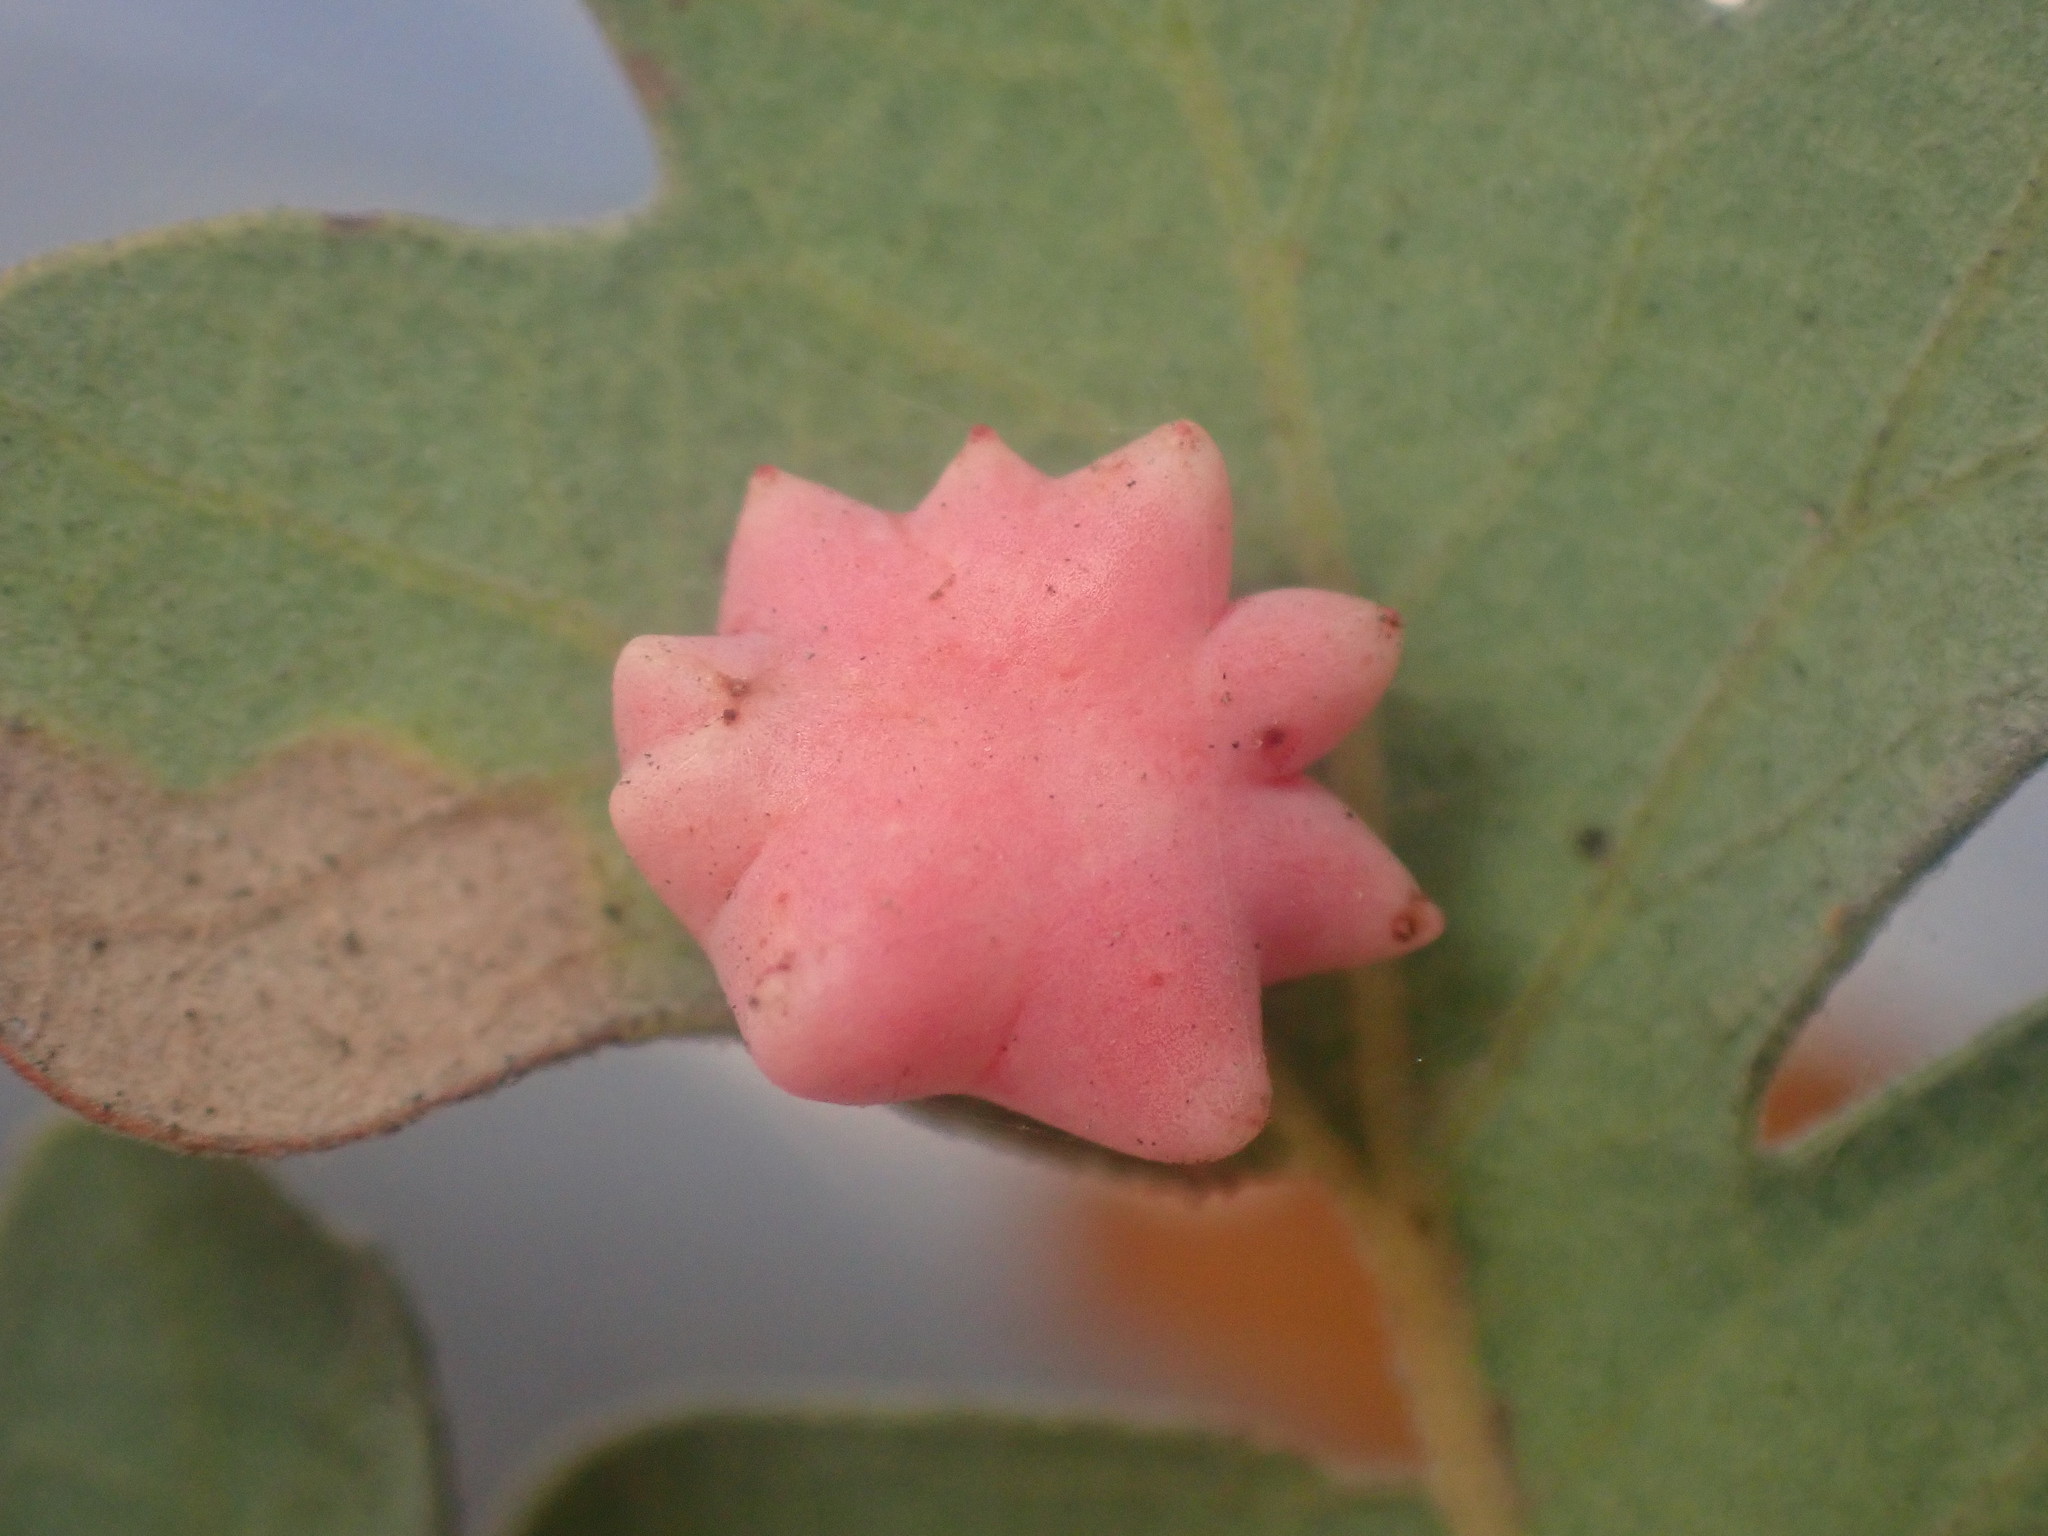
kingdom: Animalia
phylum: Arthropoda
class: Insecta
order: Hymenoptera
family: Cynipidae
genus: Cynips
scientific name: Cynips douglasi
